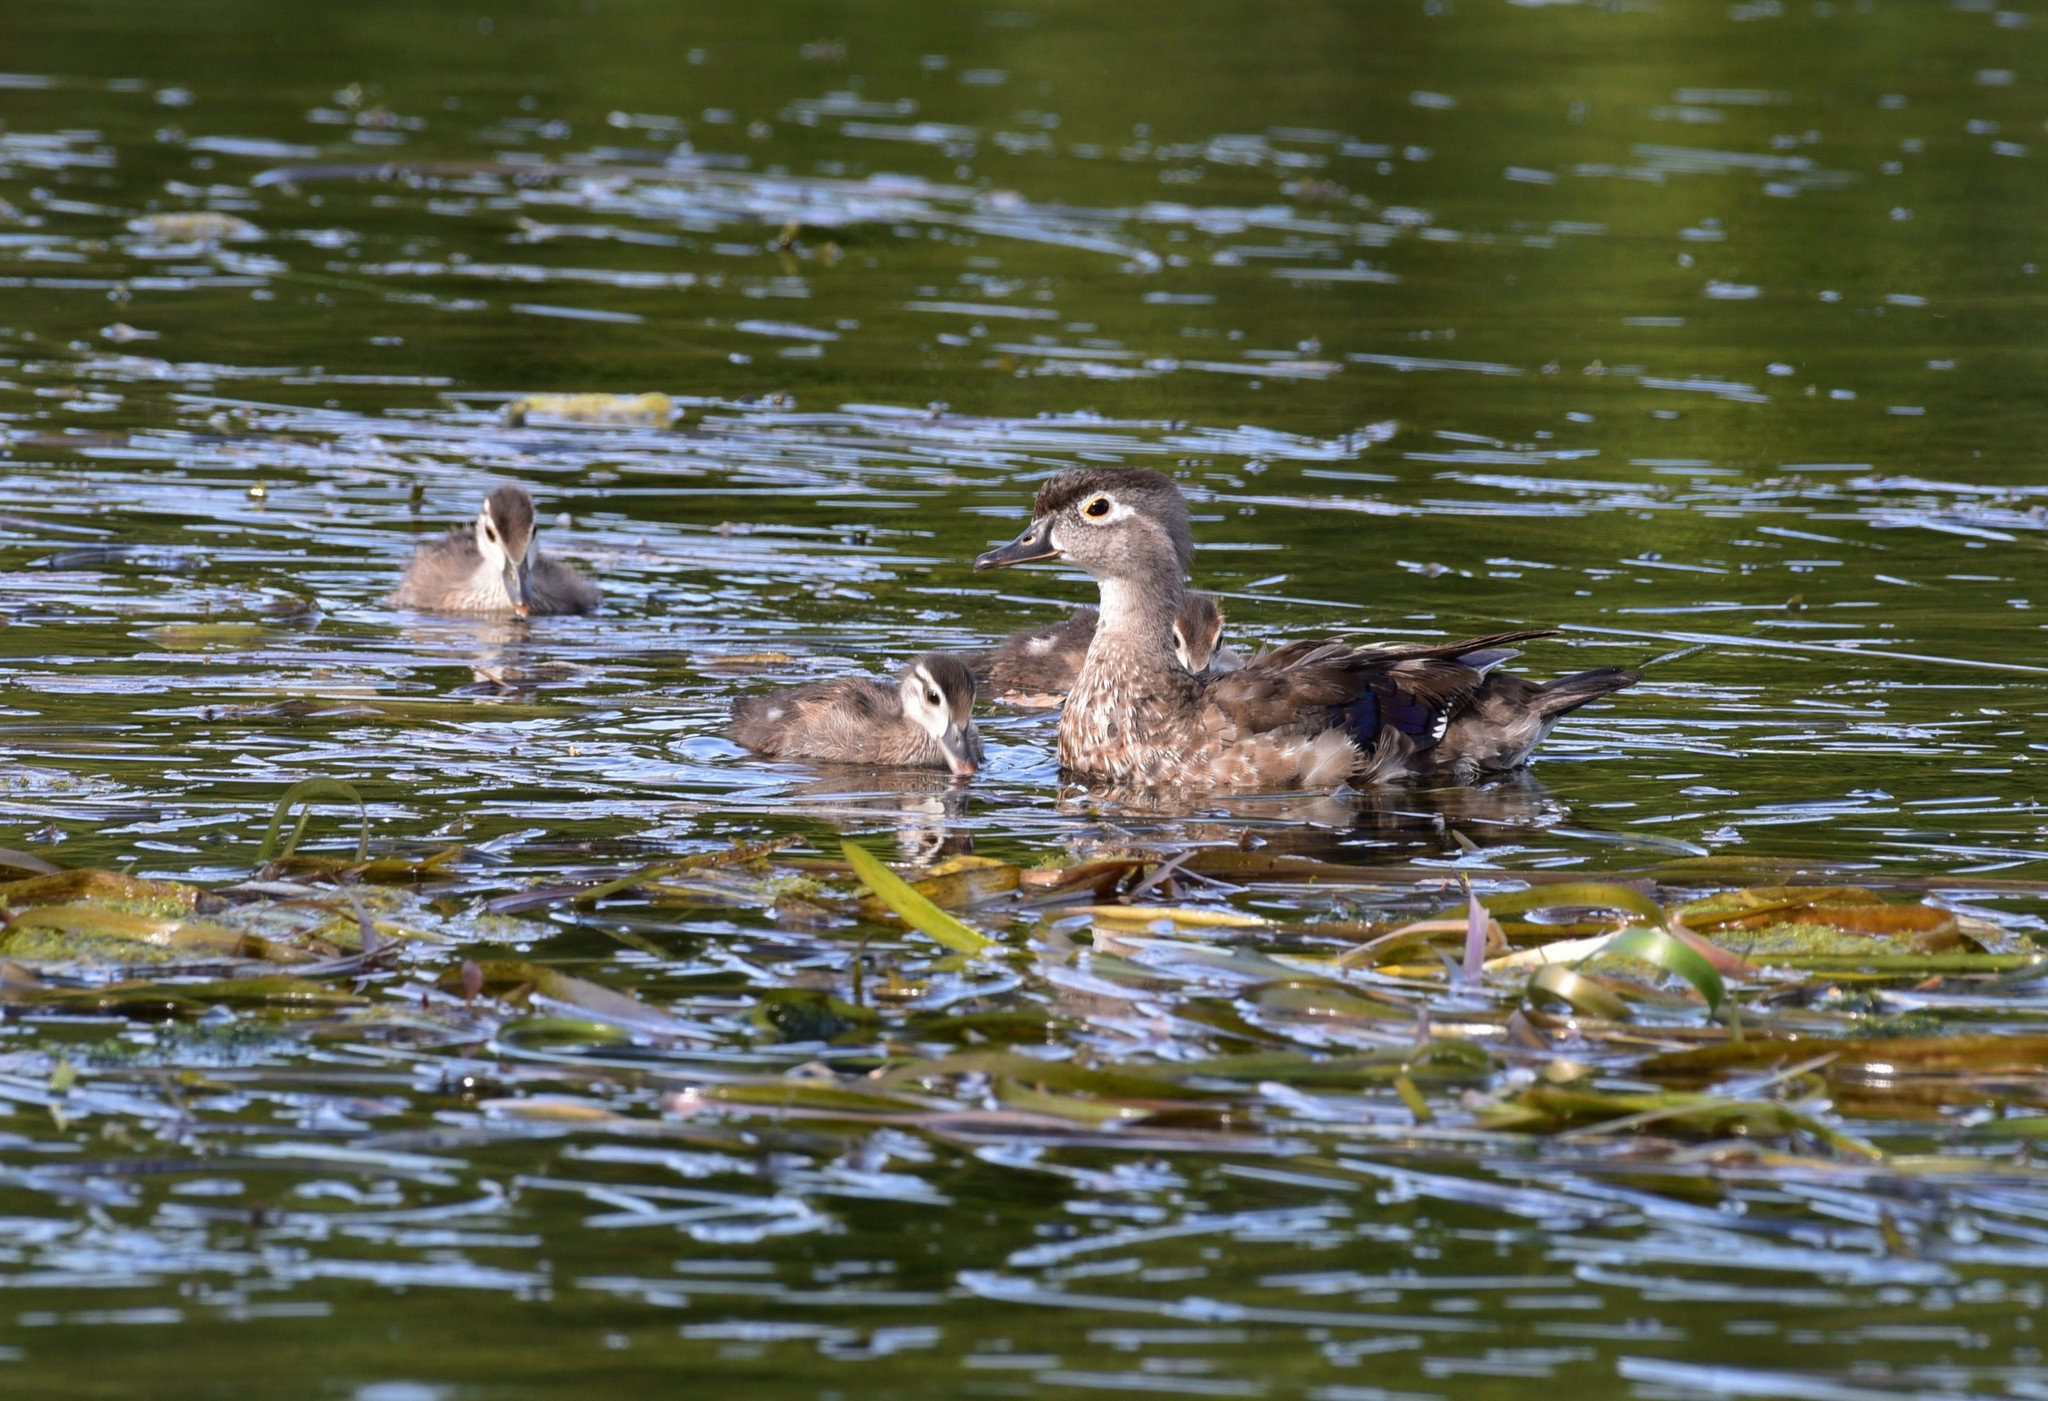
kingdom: Animalia
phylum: Chordata
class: Aves
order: Anseriformes
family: Anatidae
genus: Aix
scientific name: Aix sponsa
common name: Wood duck
